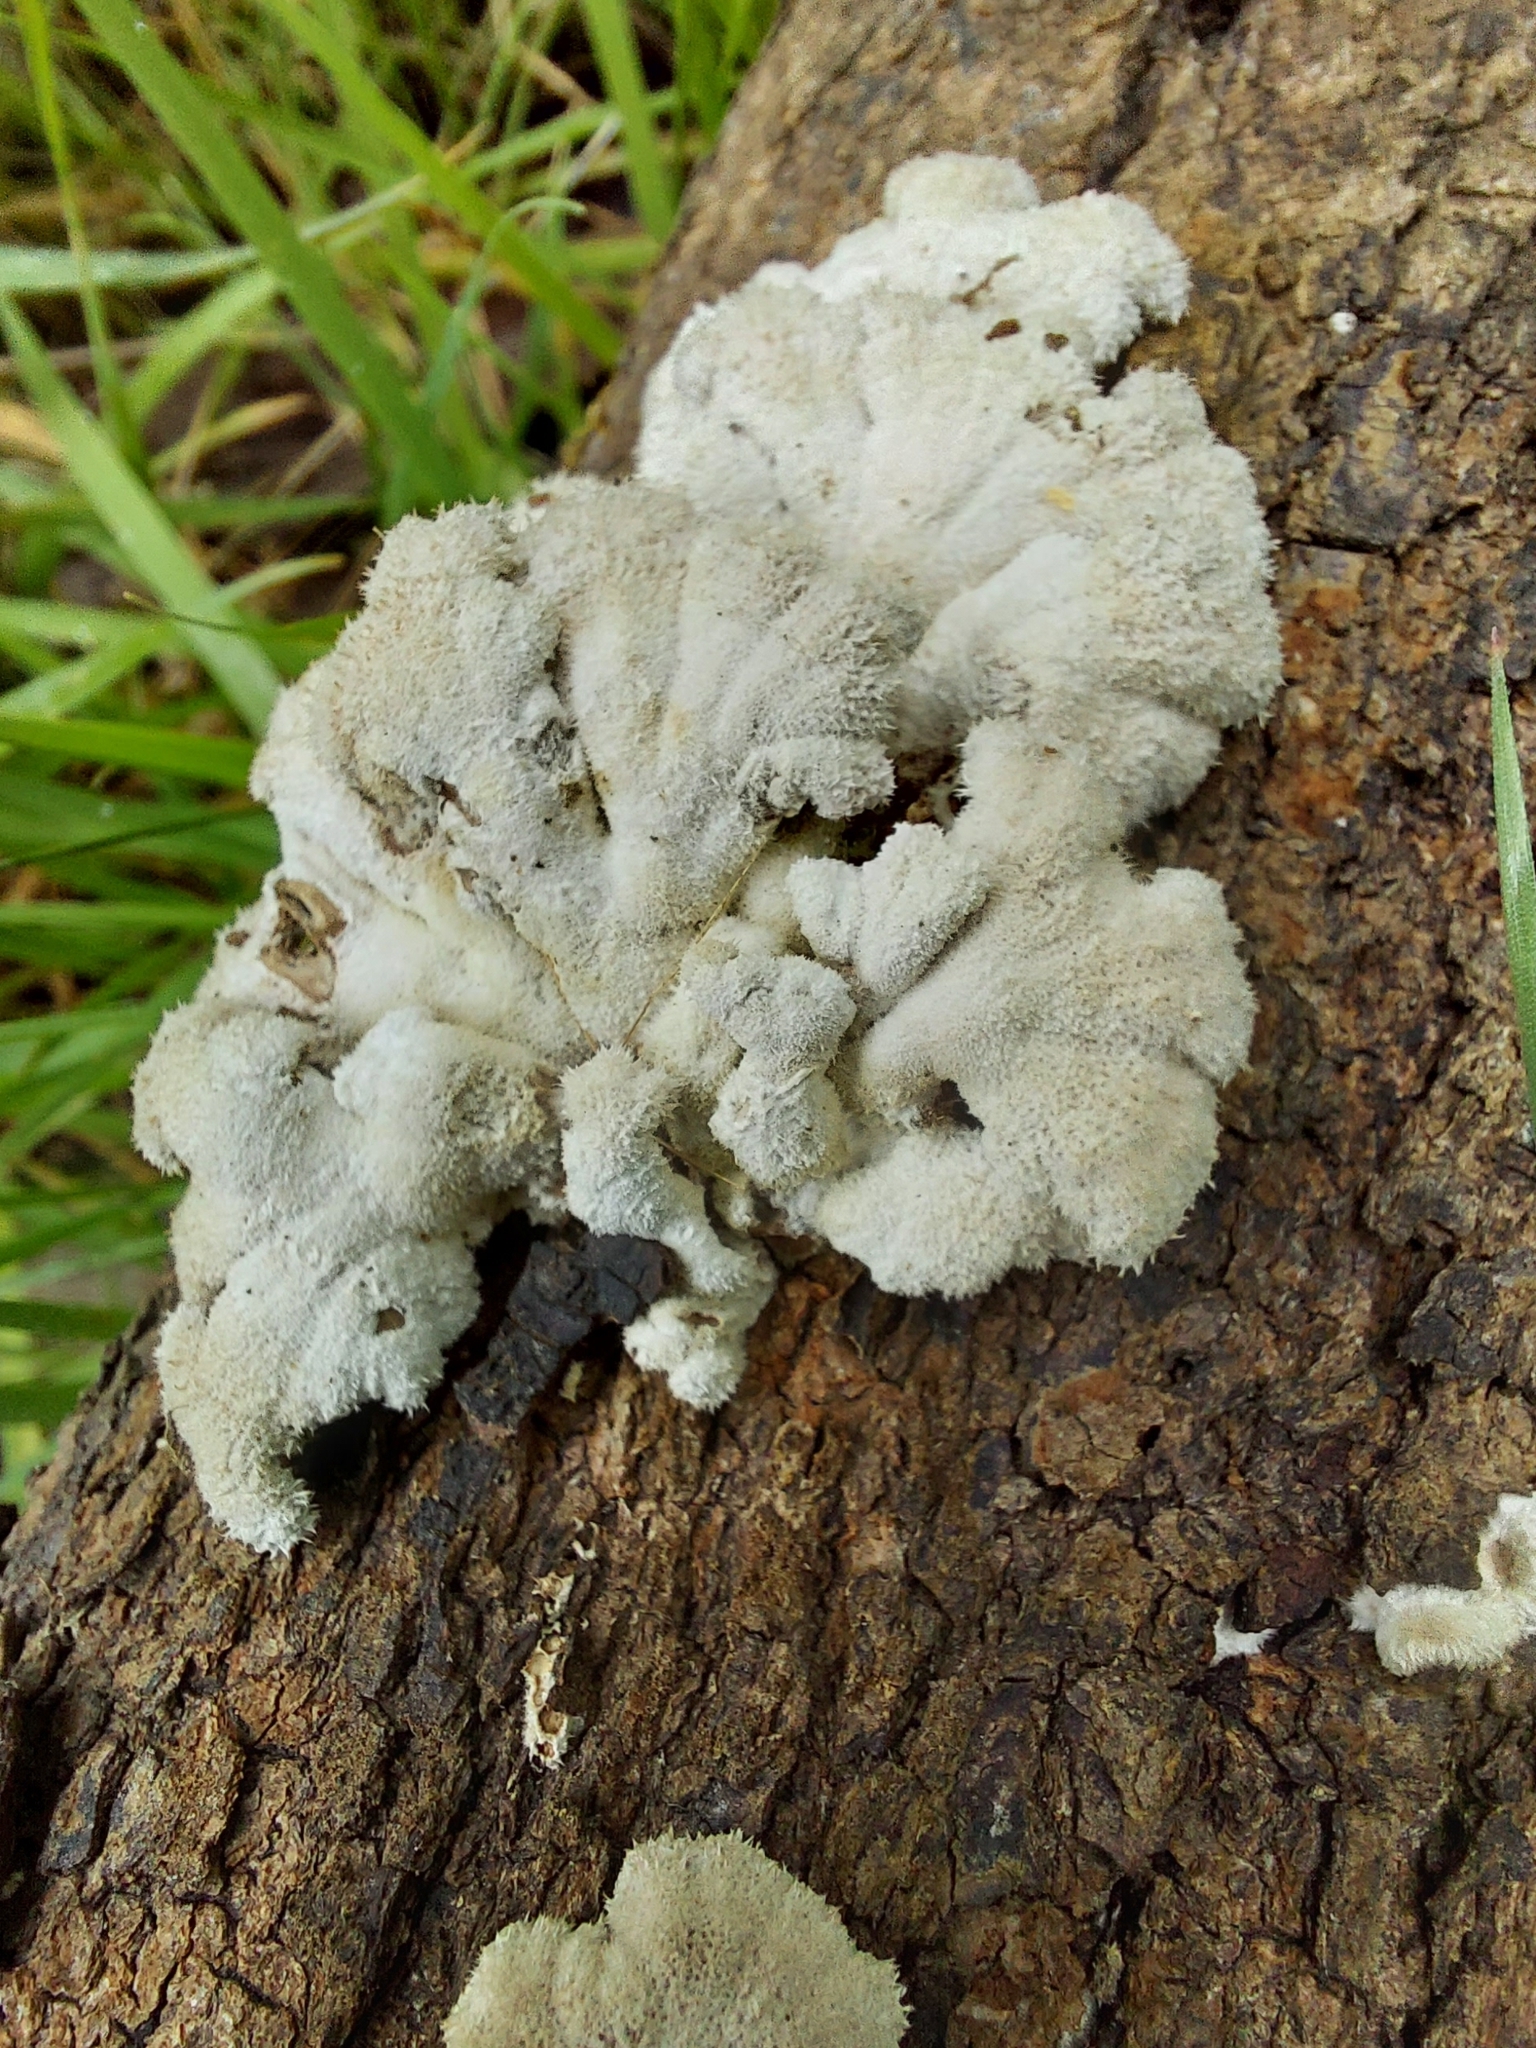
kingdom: Fungi
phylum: Basidiomycota
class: Agaricomycetes
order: Agaricales
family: Schizophyllaceae
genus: Schizophyllum
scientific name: Schizophyllum commune
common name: Common porecrust
